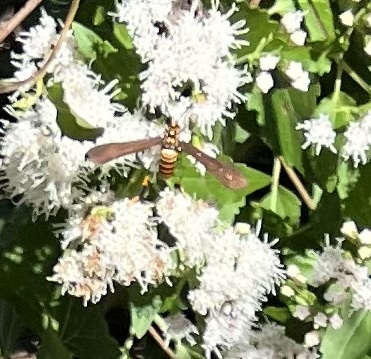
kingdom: Animalia
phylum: Arthropoda
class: Insecta
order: Lepidoptera
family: Erebidae
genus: Horama
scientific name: Horama panthalon
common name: Texas wasp moth
